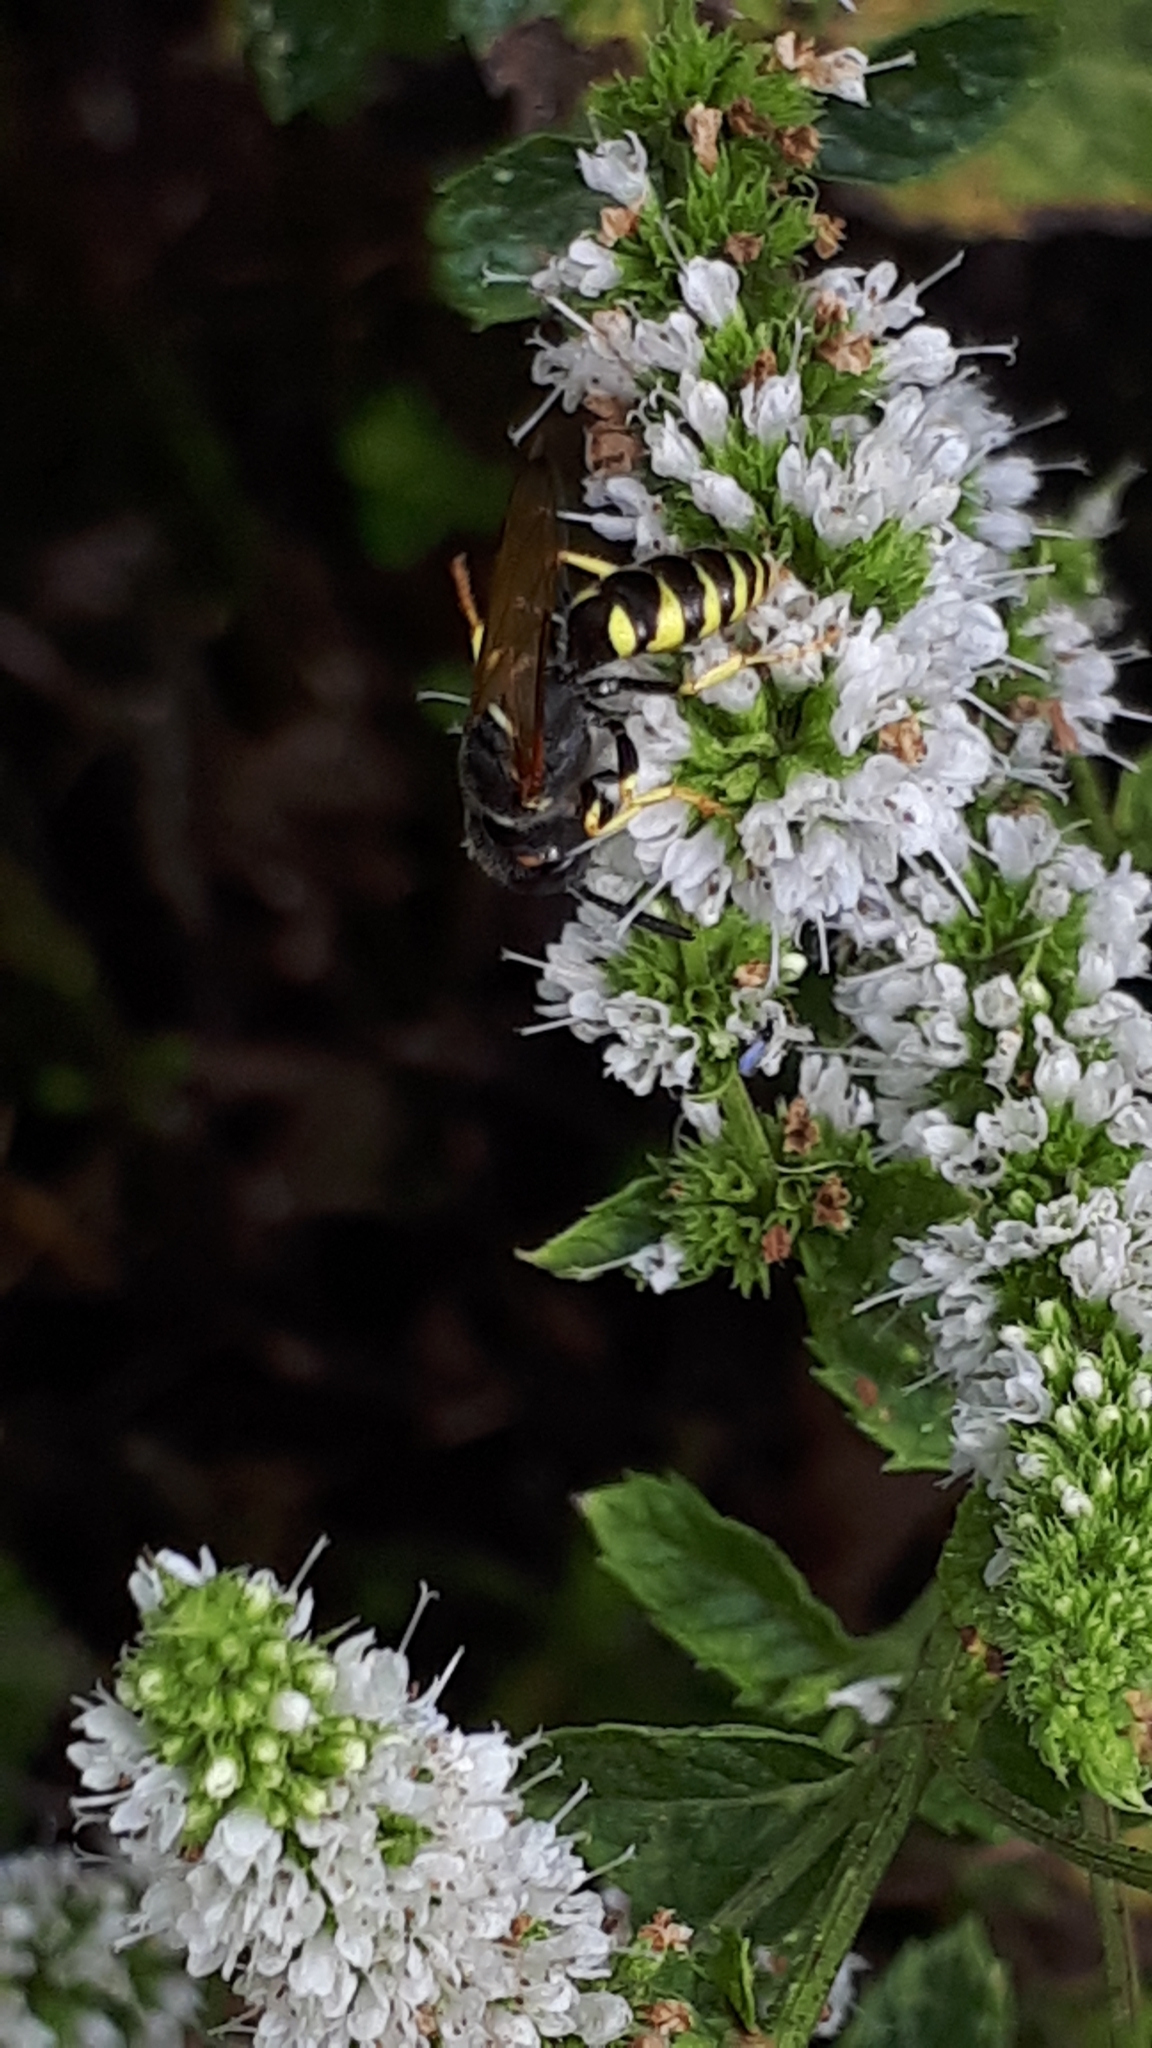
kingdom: Animalia
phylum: Arthropoda
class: Insecta
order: Hymenoptera
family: Crabronidae
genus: Philanthus
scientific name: Philanthus triangulum
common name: Bee wolf
